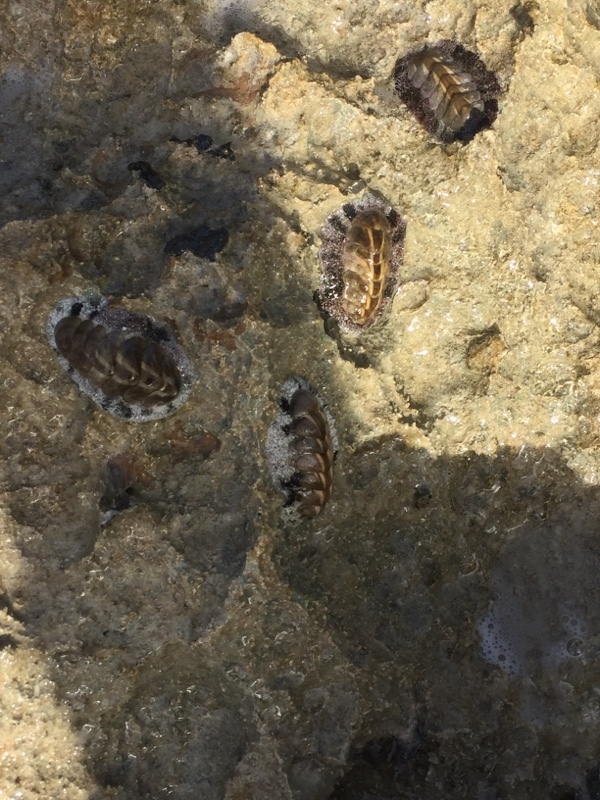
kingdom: Animalia
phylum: Mollusca
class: Polyplacophora
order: Chitonida
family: Chitonidae
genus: Acanthopleura
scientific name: Acanthopleura granulata
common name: West indian fuzzy chiton
